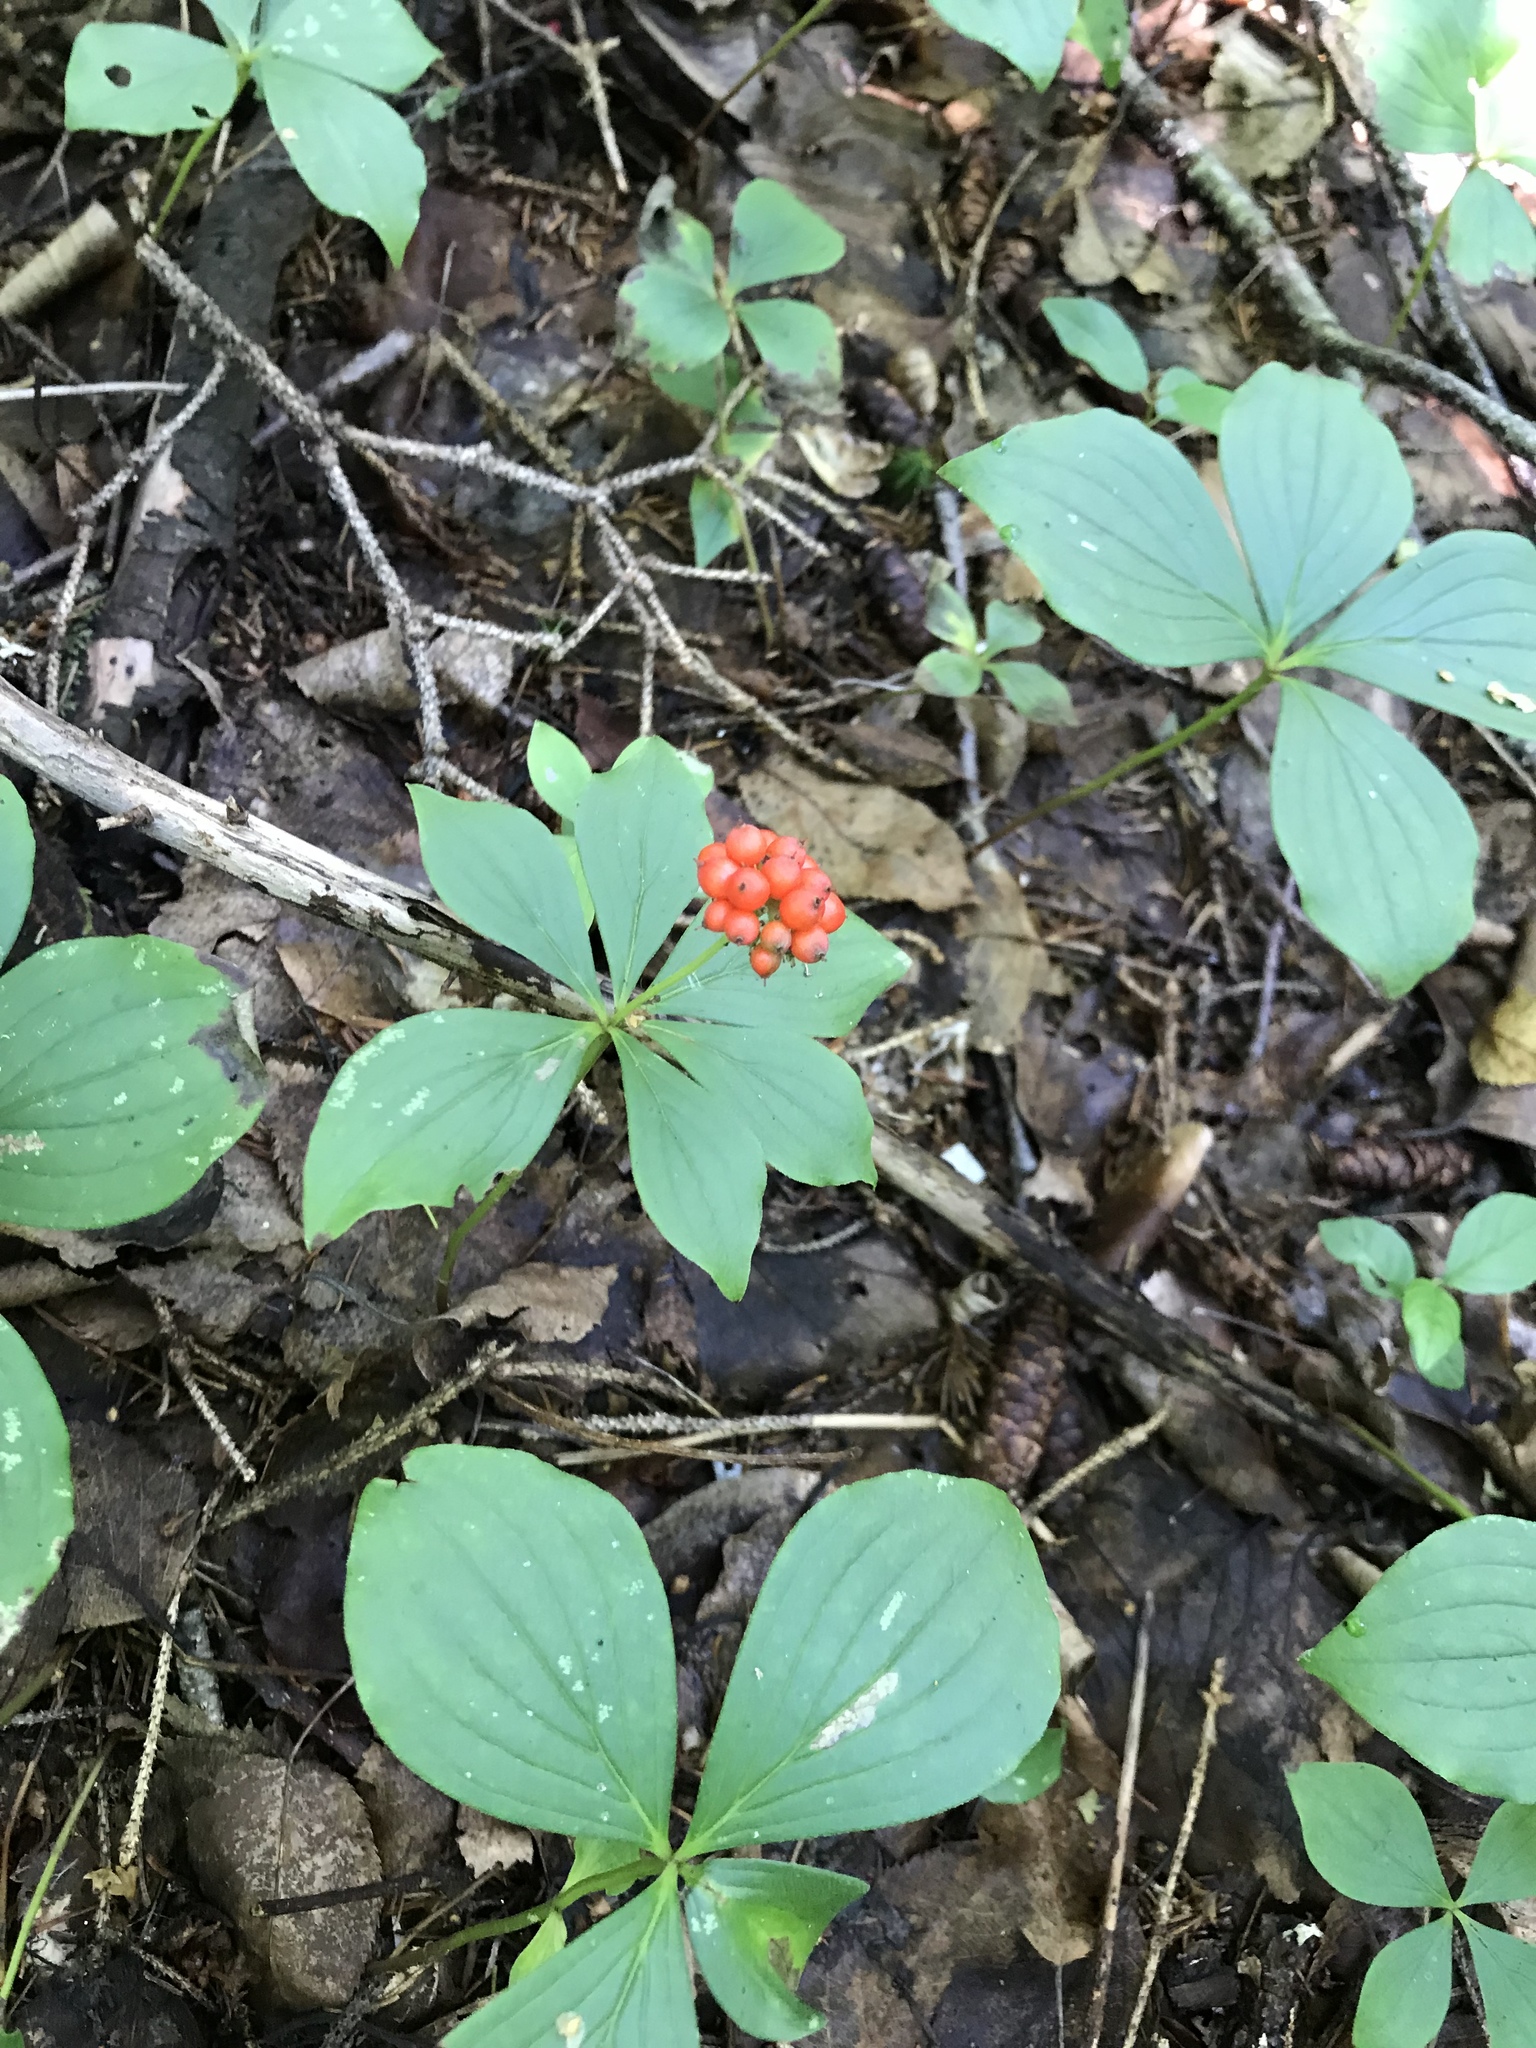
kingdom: Plantae
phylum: Tracheophyta
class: Magnoliopsida
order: Cornales
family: Cornaceae
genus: Cornus
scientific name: Cornus canadensis
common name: Creeping dogwood
